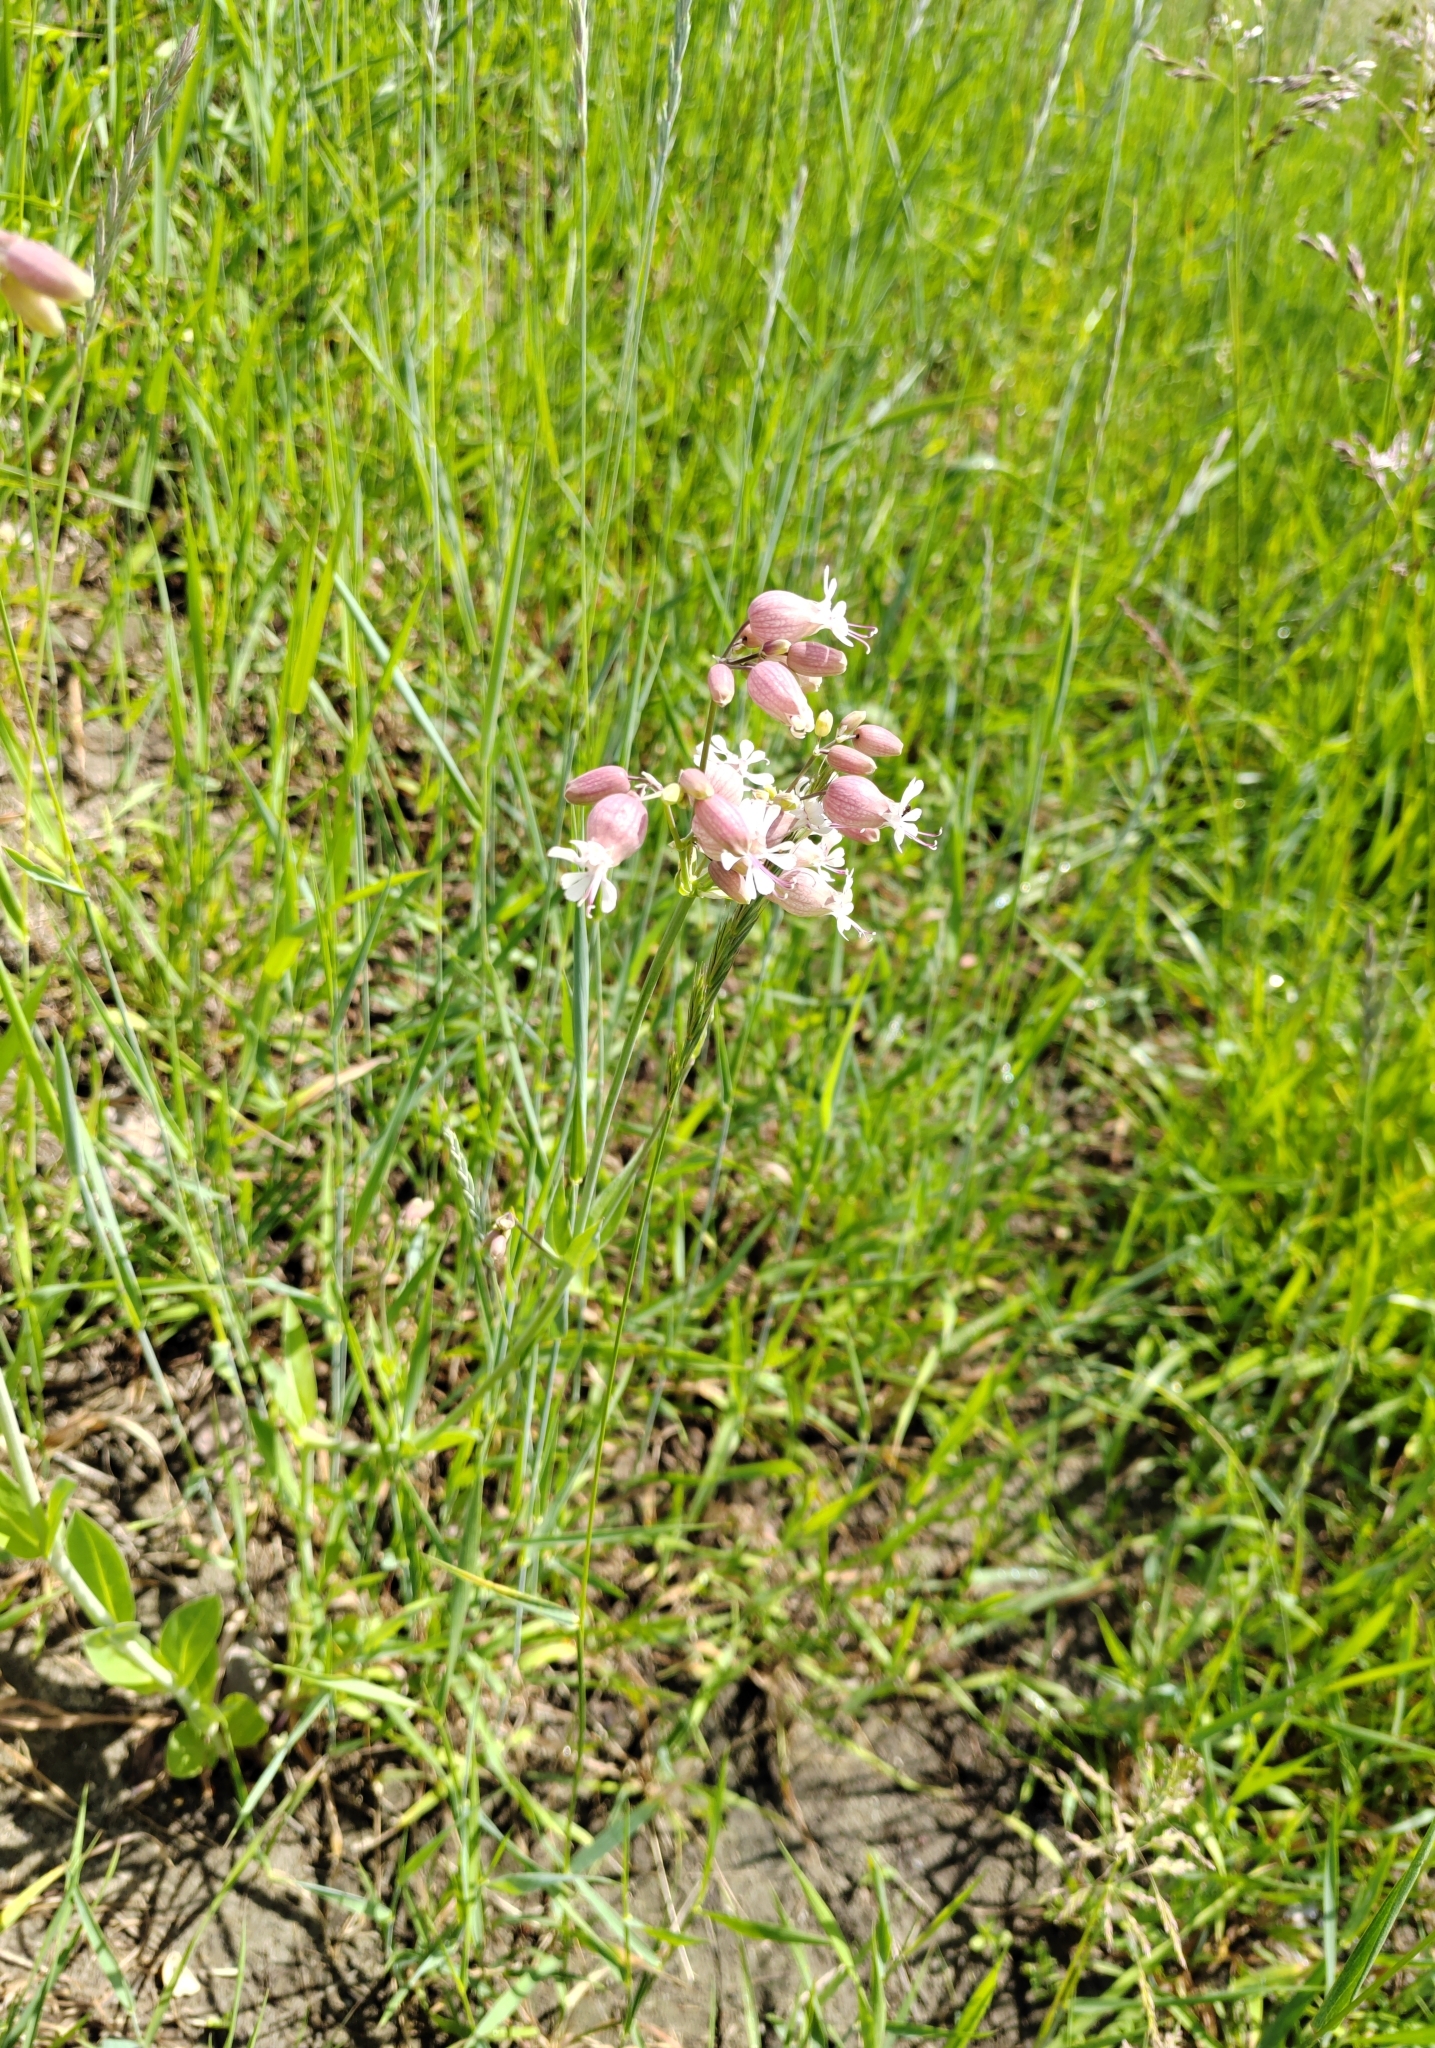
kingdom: Plantae
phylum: Tracheophyta
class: Magnoliopsida
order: Caryophyllales
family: Caryophyllaceae
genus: Silene
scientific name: Silene vulgaris
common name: Bladder campion
